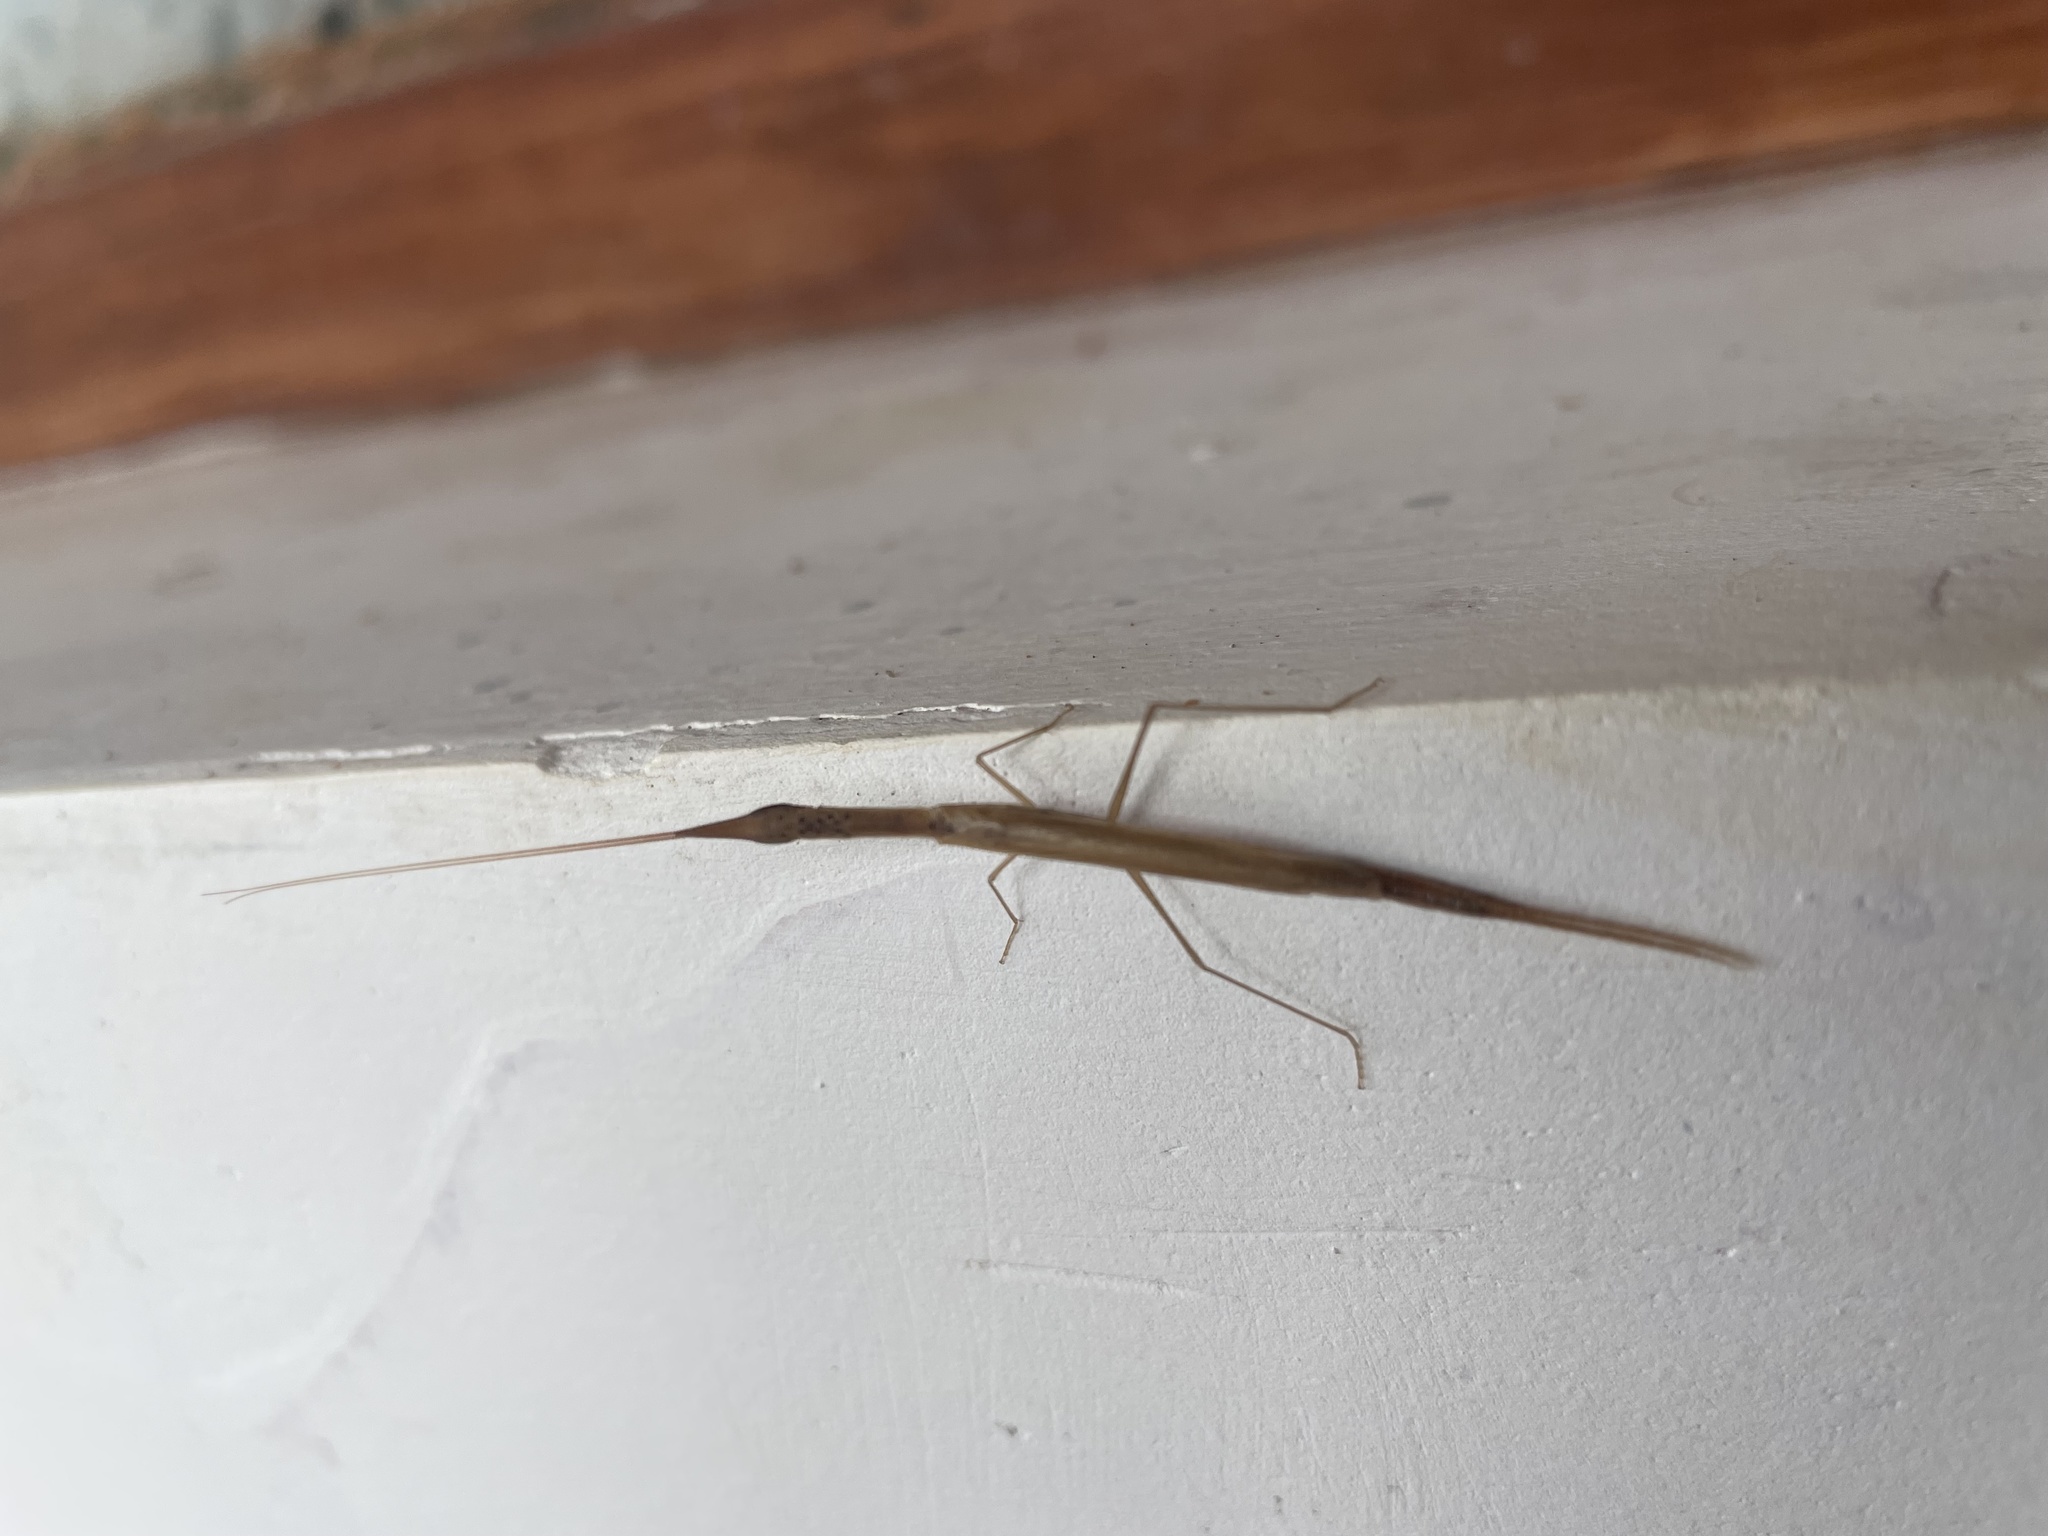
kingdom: Animalia
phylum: Arthropoda
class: Insecta
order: Mantodea
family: Eremiaphilidae
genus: Didymocorypha
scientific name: Didymocorypha lanceolata
